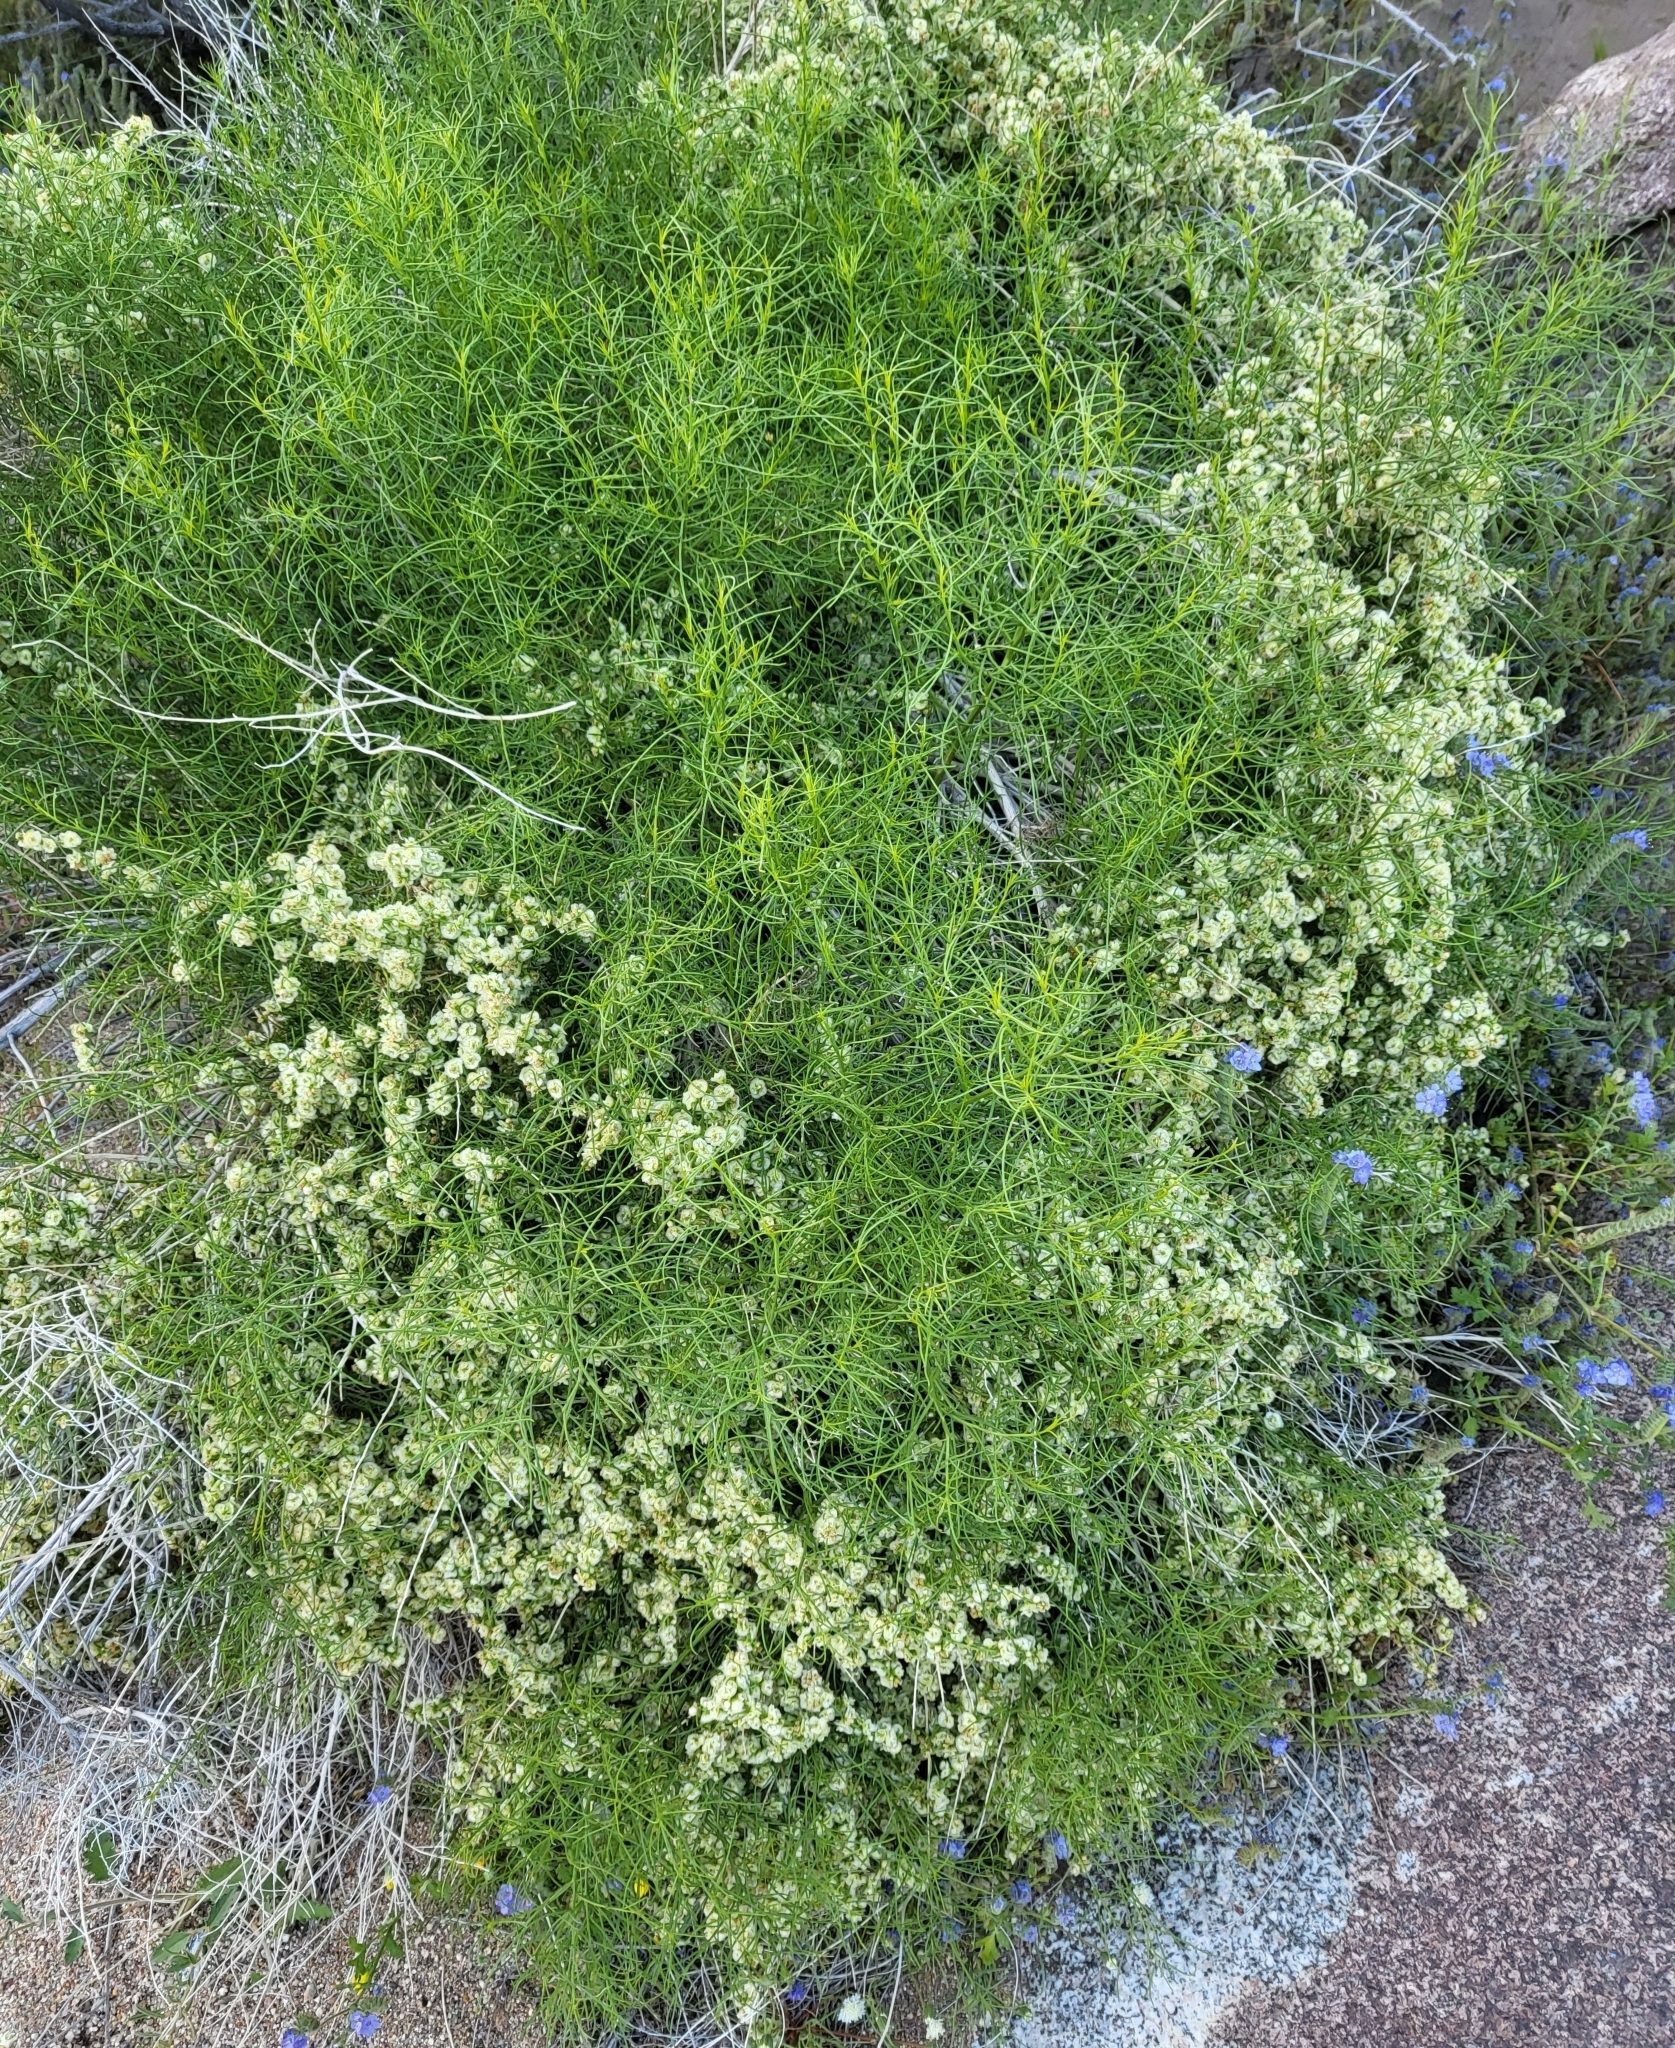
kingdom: Plantae
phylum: Tracheophyta
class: Magnoliopsida
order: Asterales
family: Asteraceae
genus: Ambrosia
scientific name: Ambrosia salsola
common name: Burrobrush
